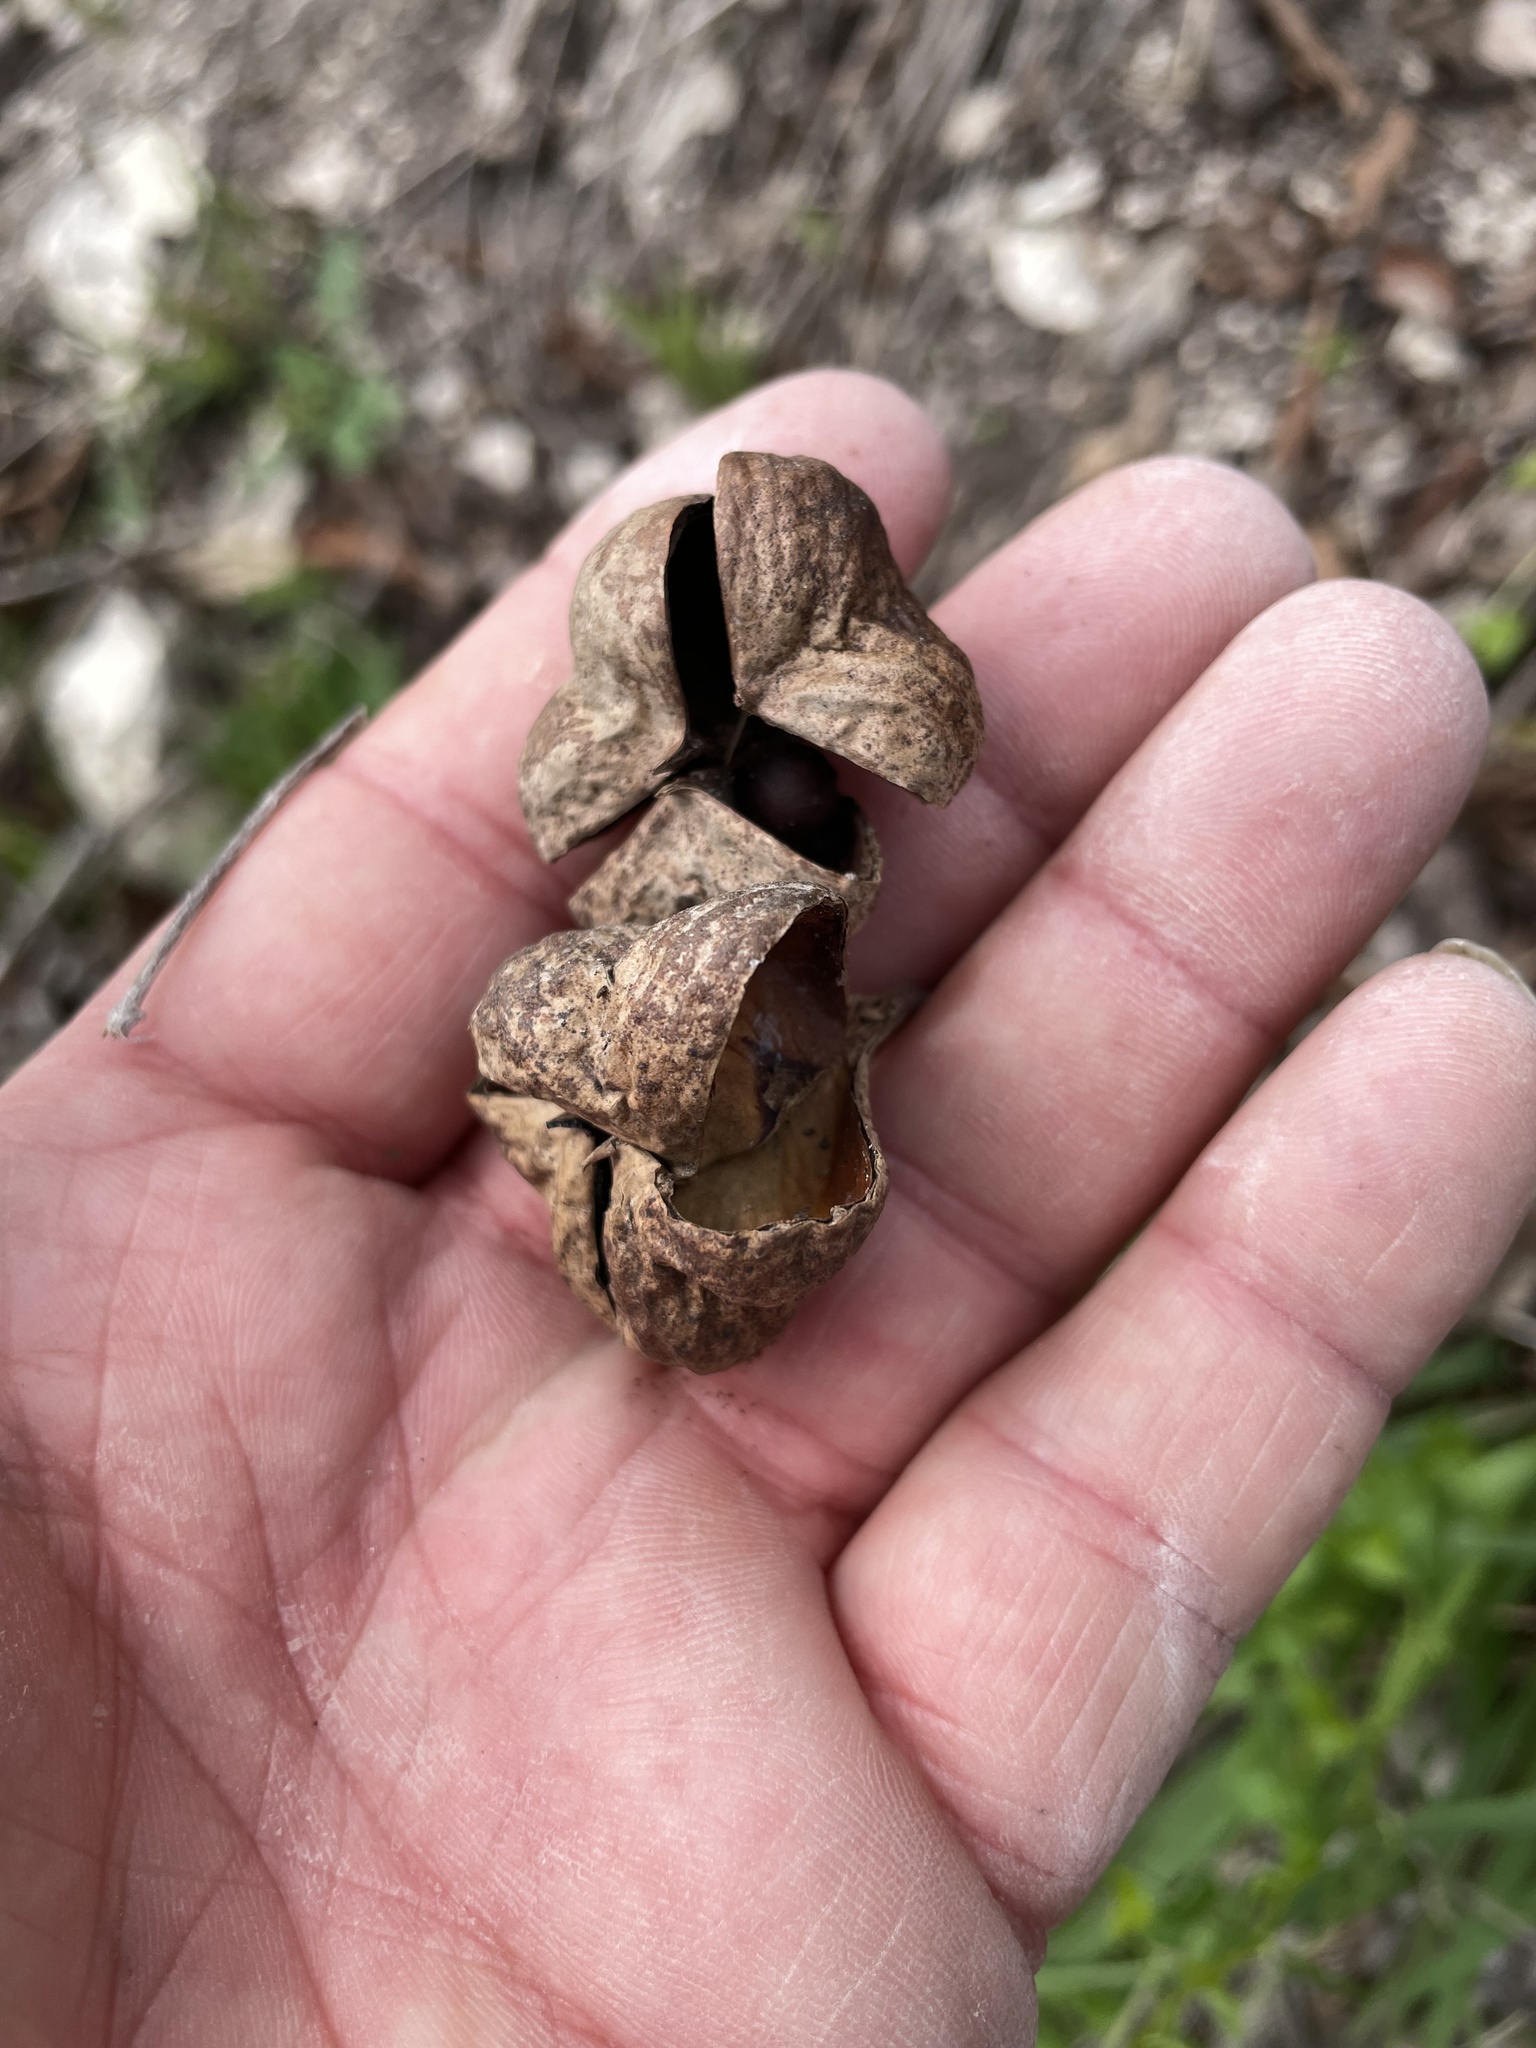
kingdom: Plantae
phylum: Tracheophyta
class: Magnoliopsida
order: Sapindales
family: Sapindaceae
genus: Ungnadia
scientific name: Ungnadia speciosa
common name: Texas-buckeye
